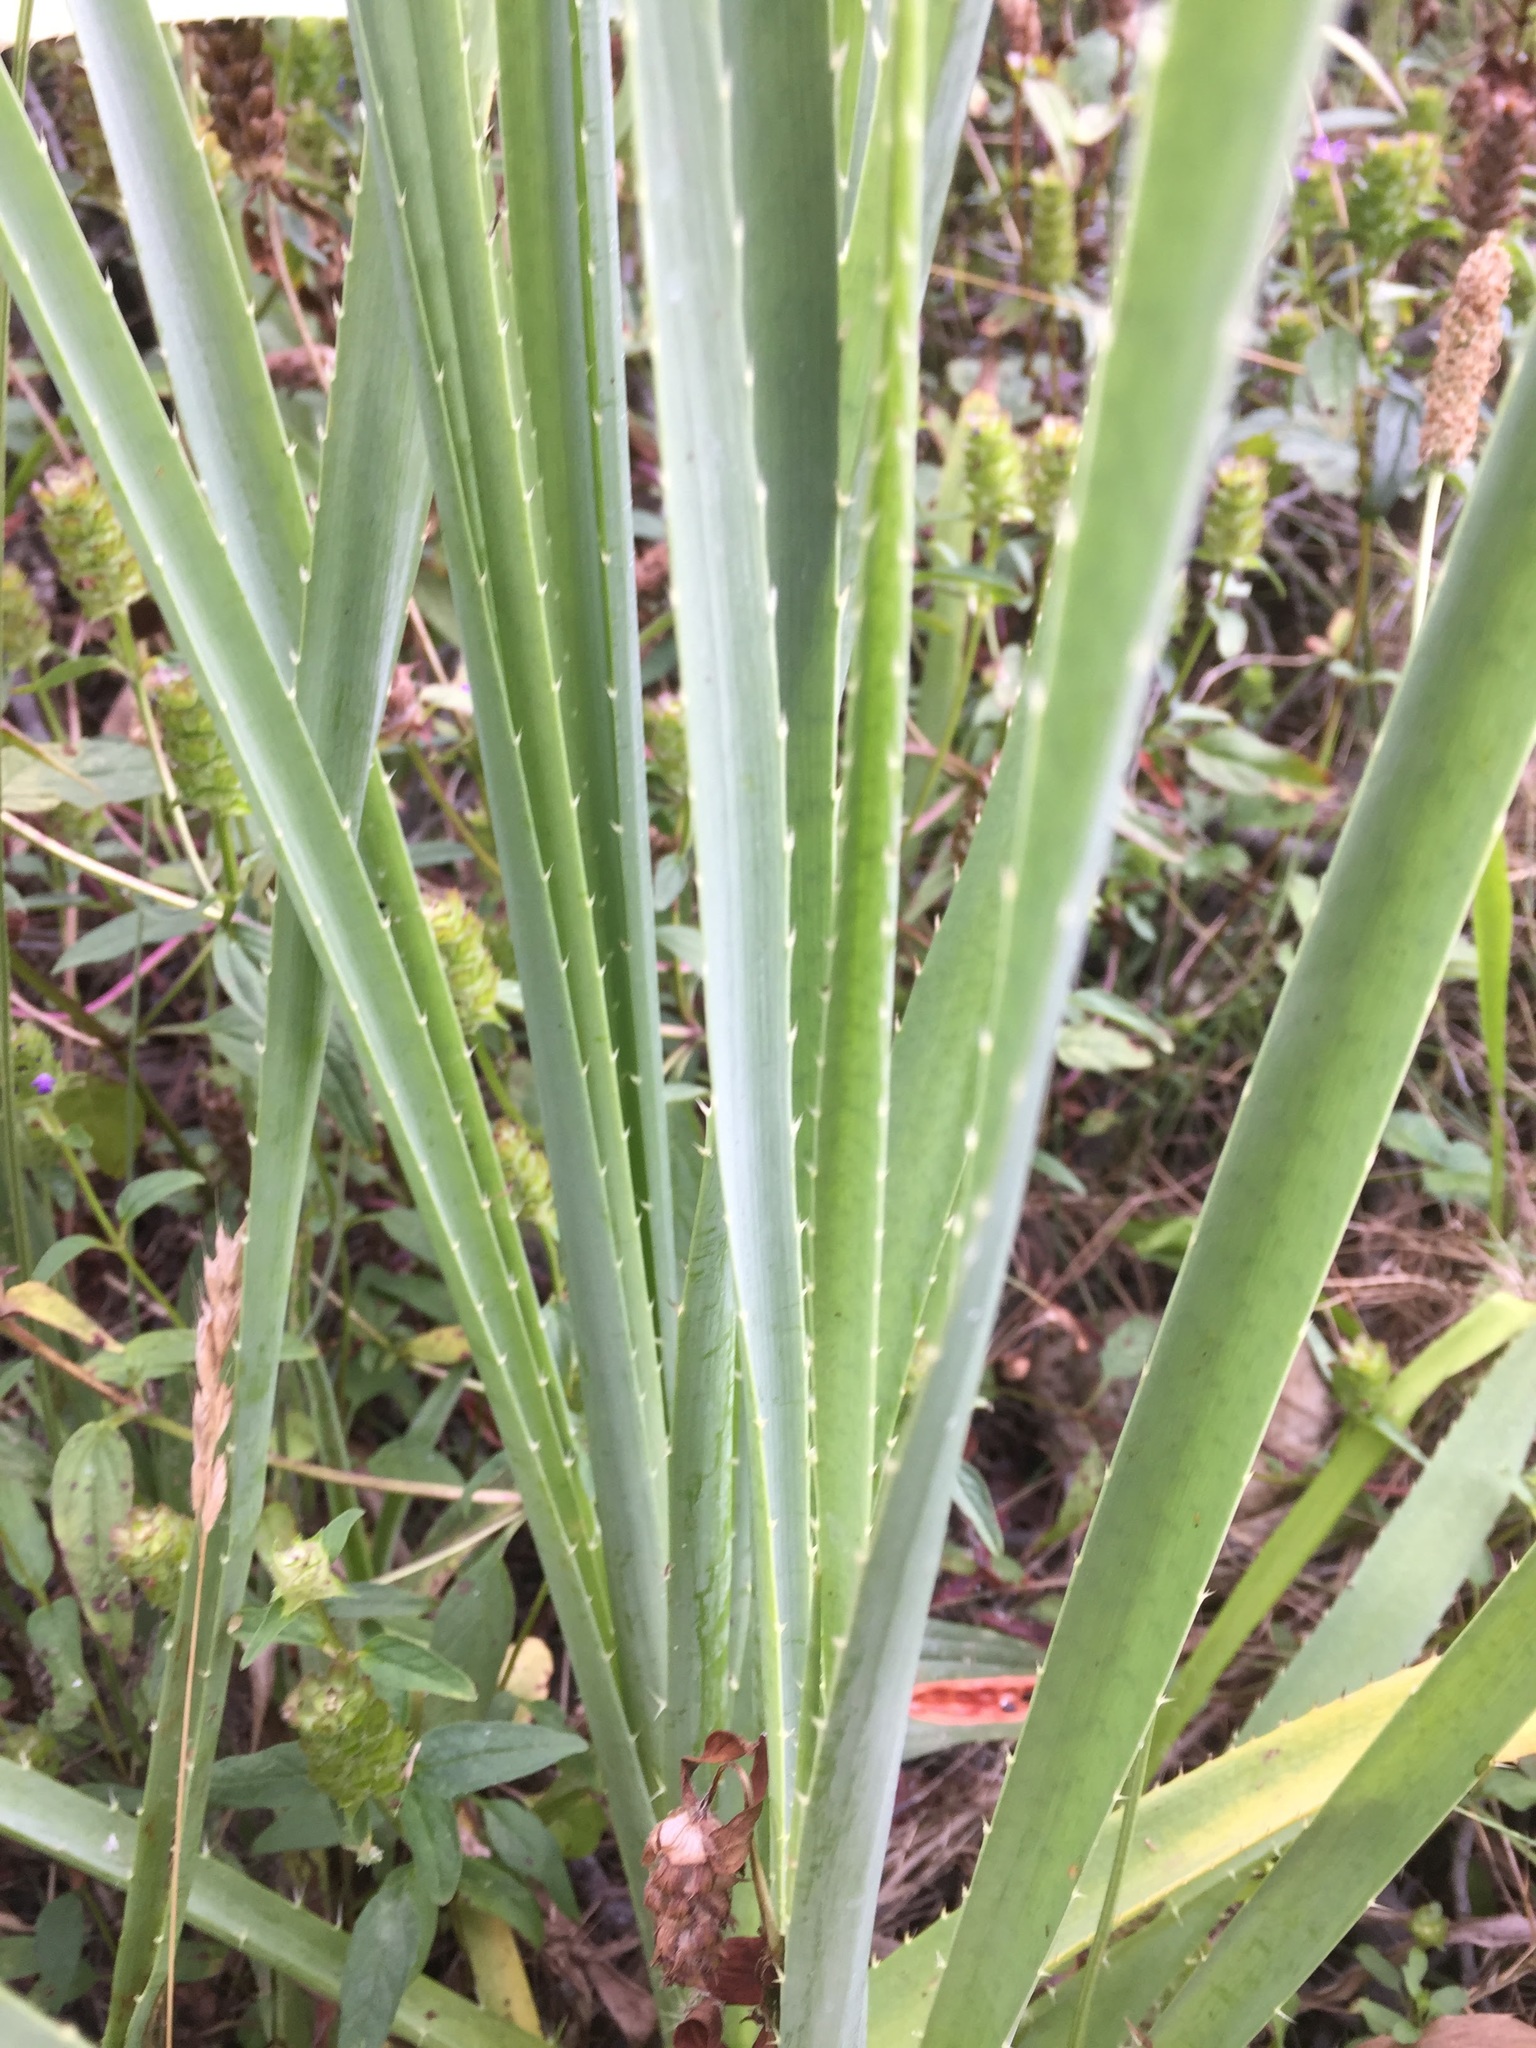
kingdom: Plantae
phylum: Tracheophyta
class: Magnoliopsida
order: Apiales
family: Apiaceae
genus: Eryngium
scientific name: Eryngium pandanifolium
